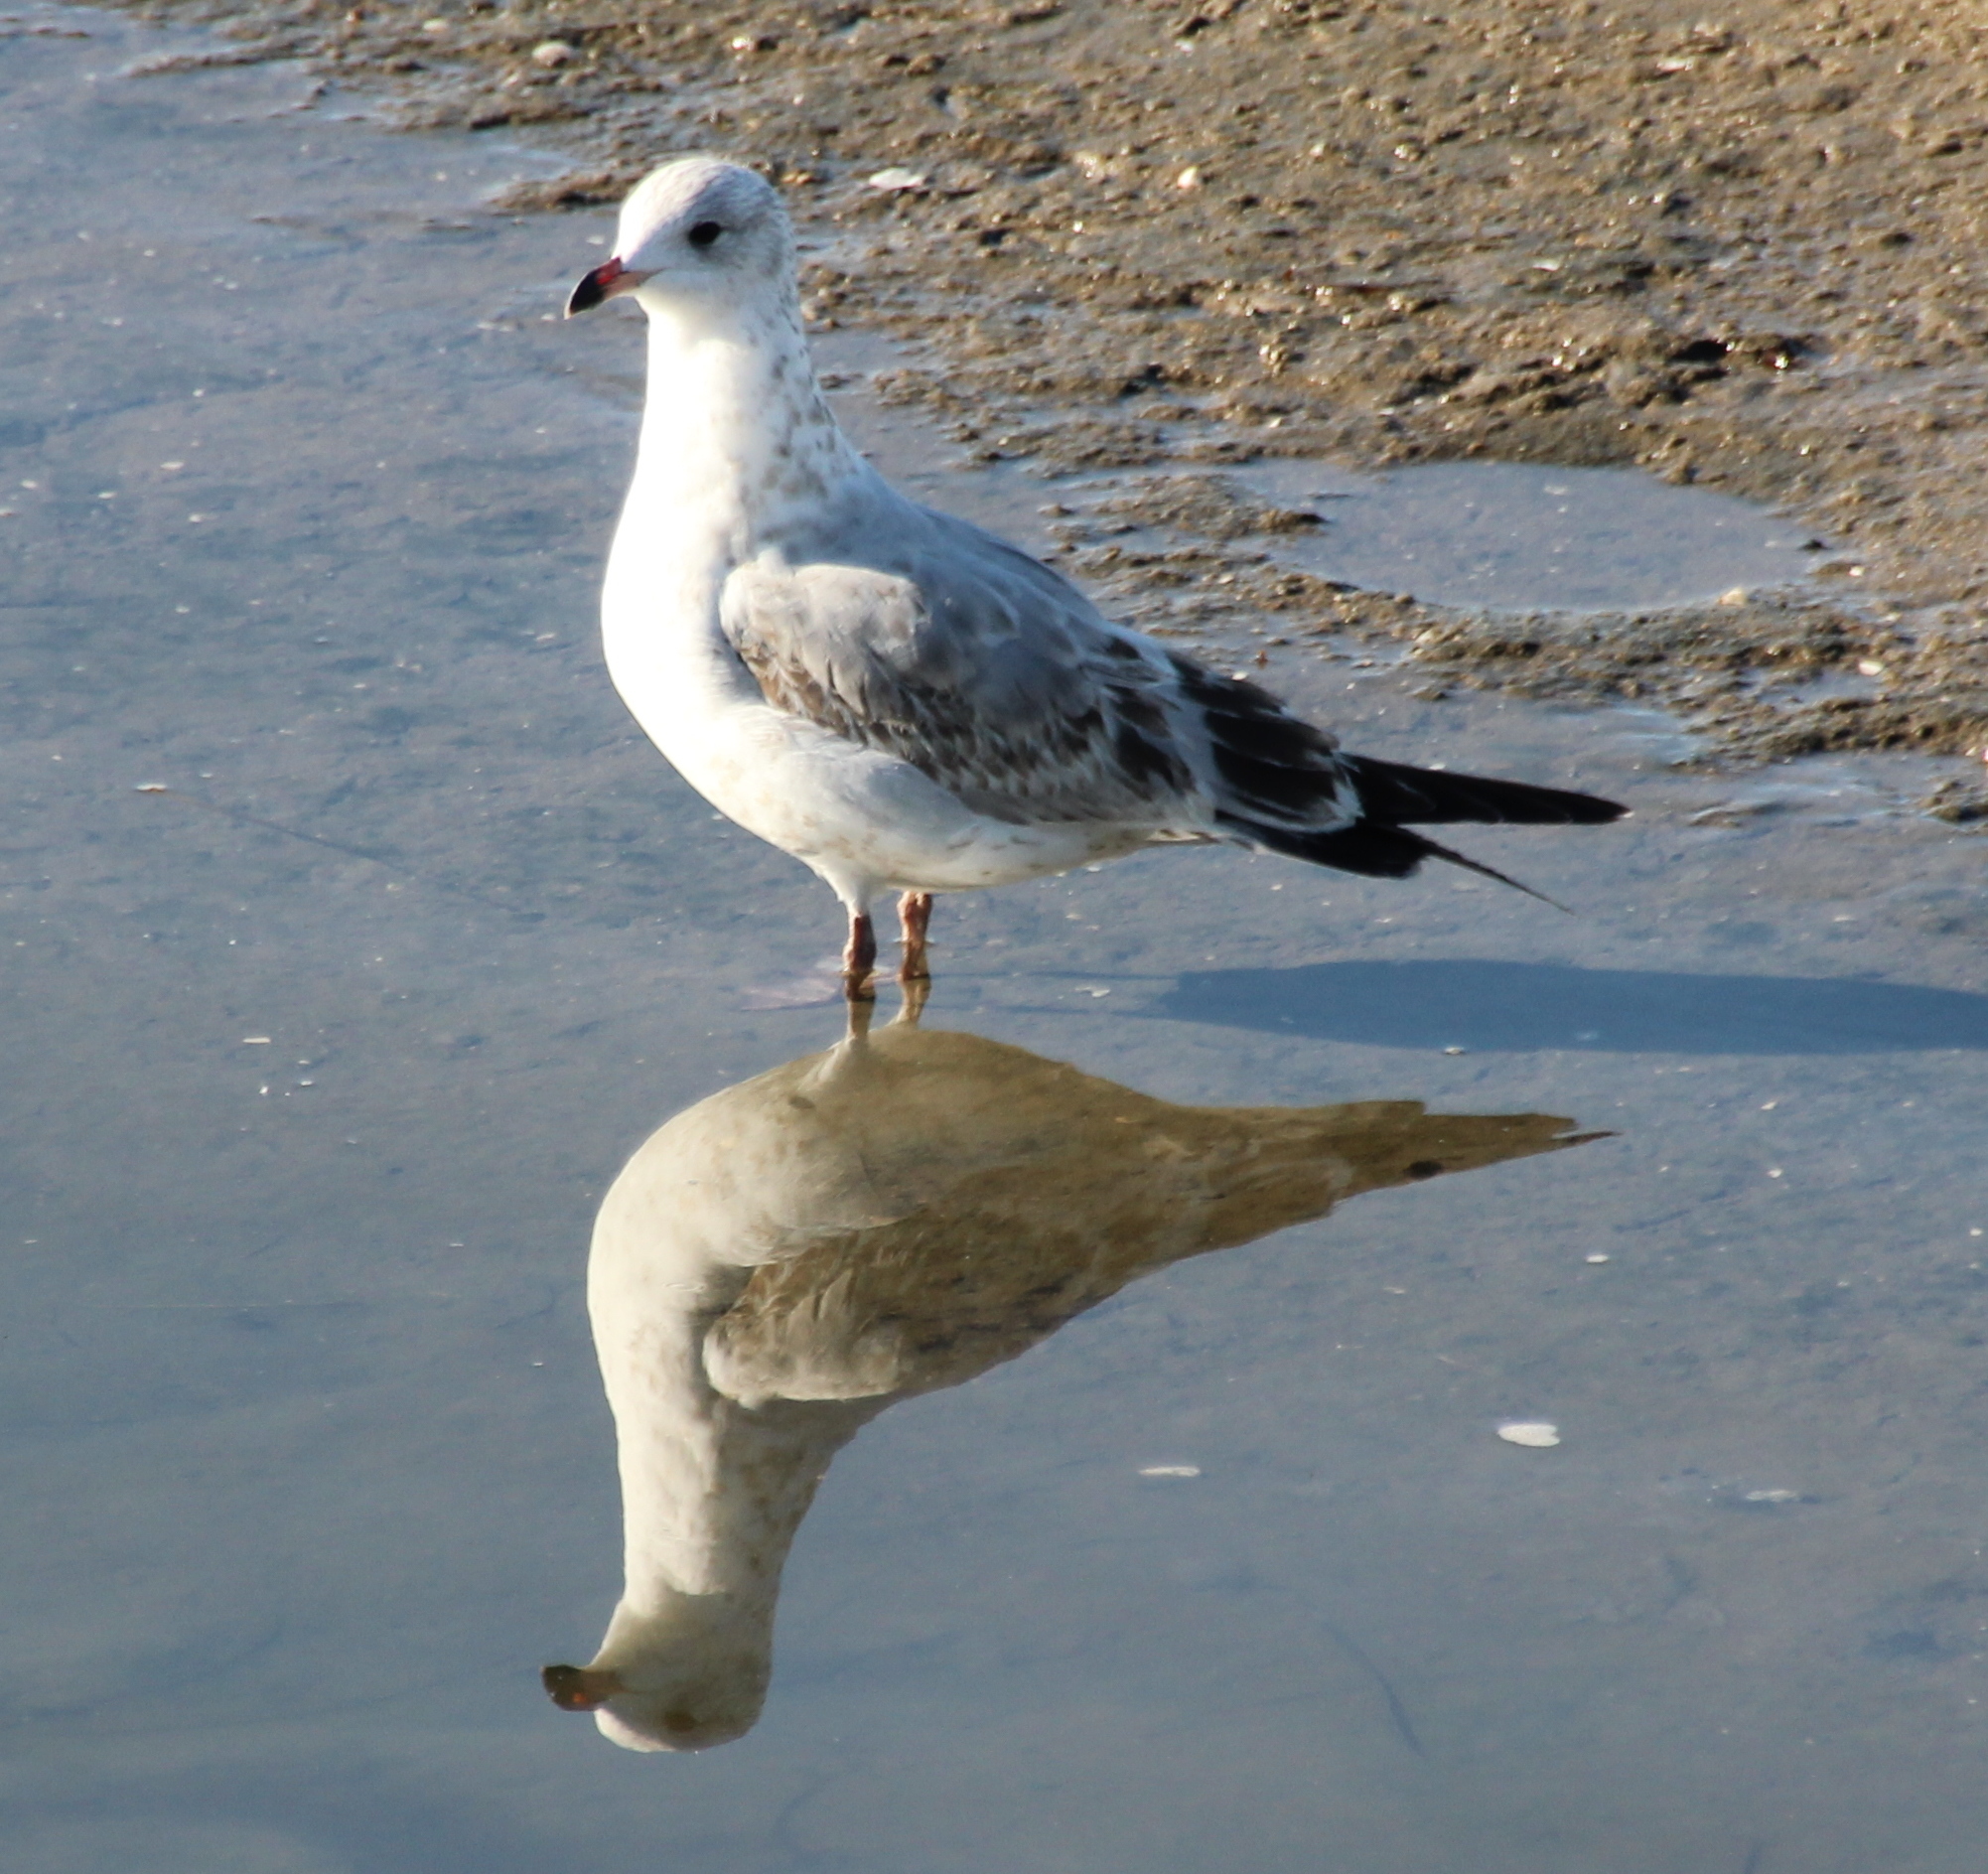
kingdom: Animalia
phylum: Chordata
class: Aves
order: Charadriiformes
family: Laridae
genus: Larus
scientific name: Larus delawarensis
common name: Ring-billed gull
